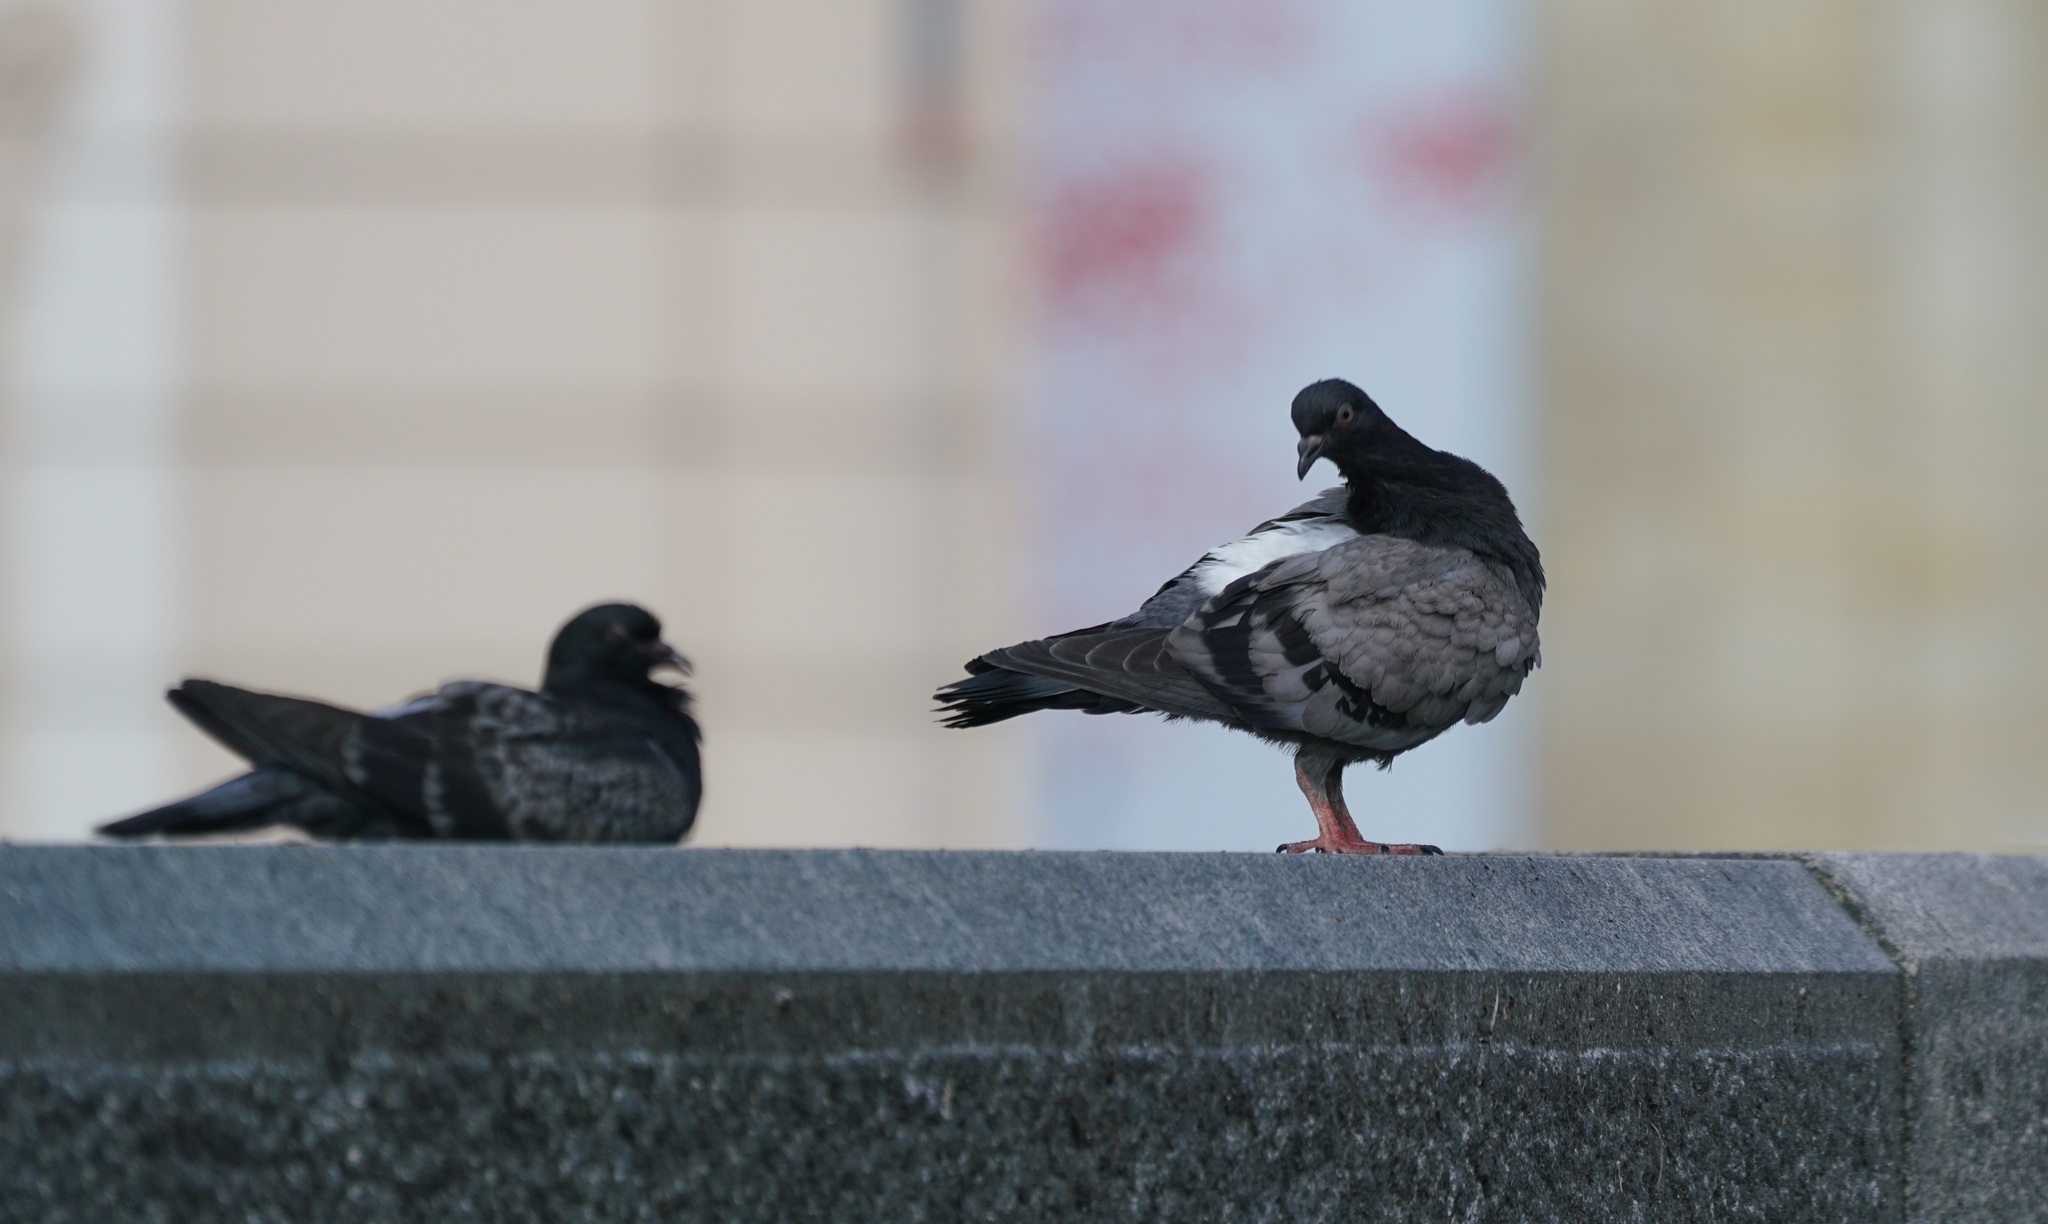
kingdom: Animalia
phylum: Chordata
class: Aves
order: Columbiformes
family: Columbidae
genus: Columba
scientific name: Columba livia
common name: Rock pigeon
